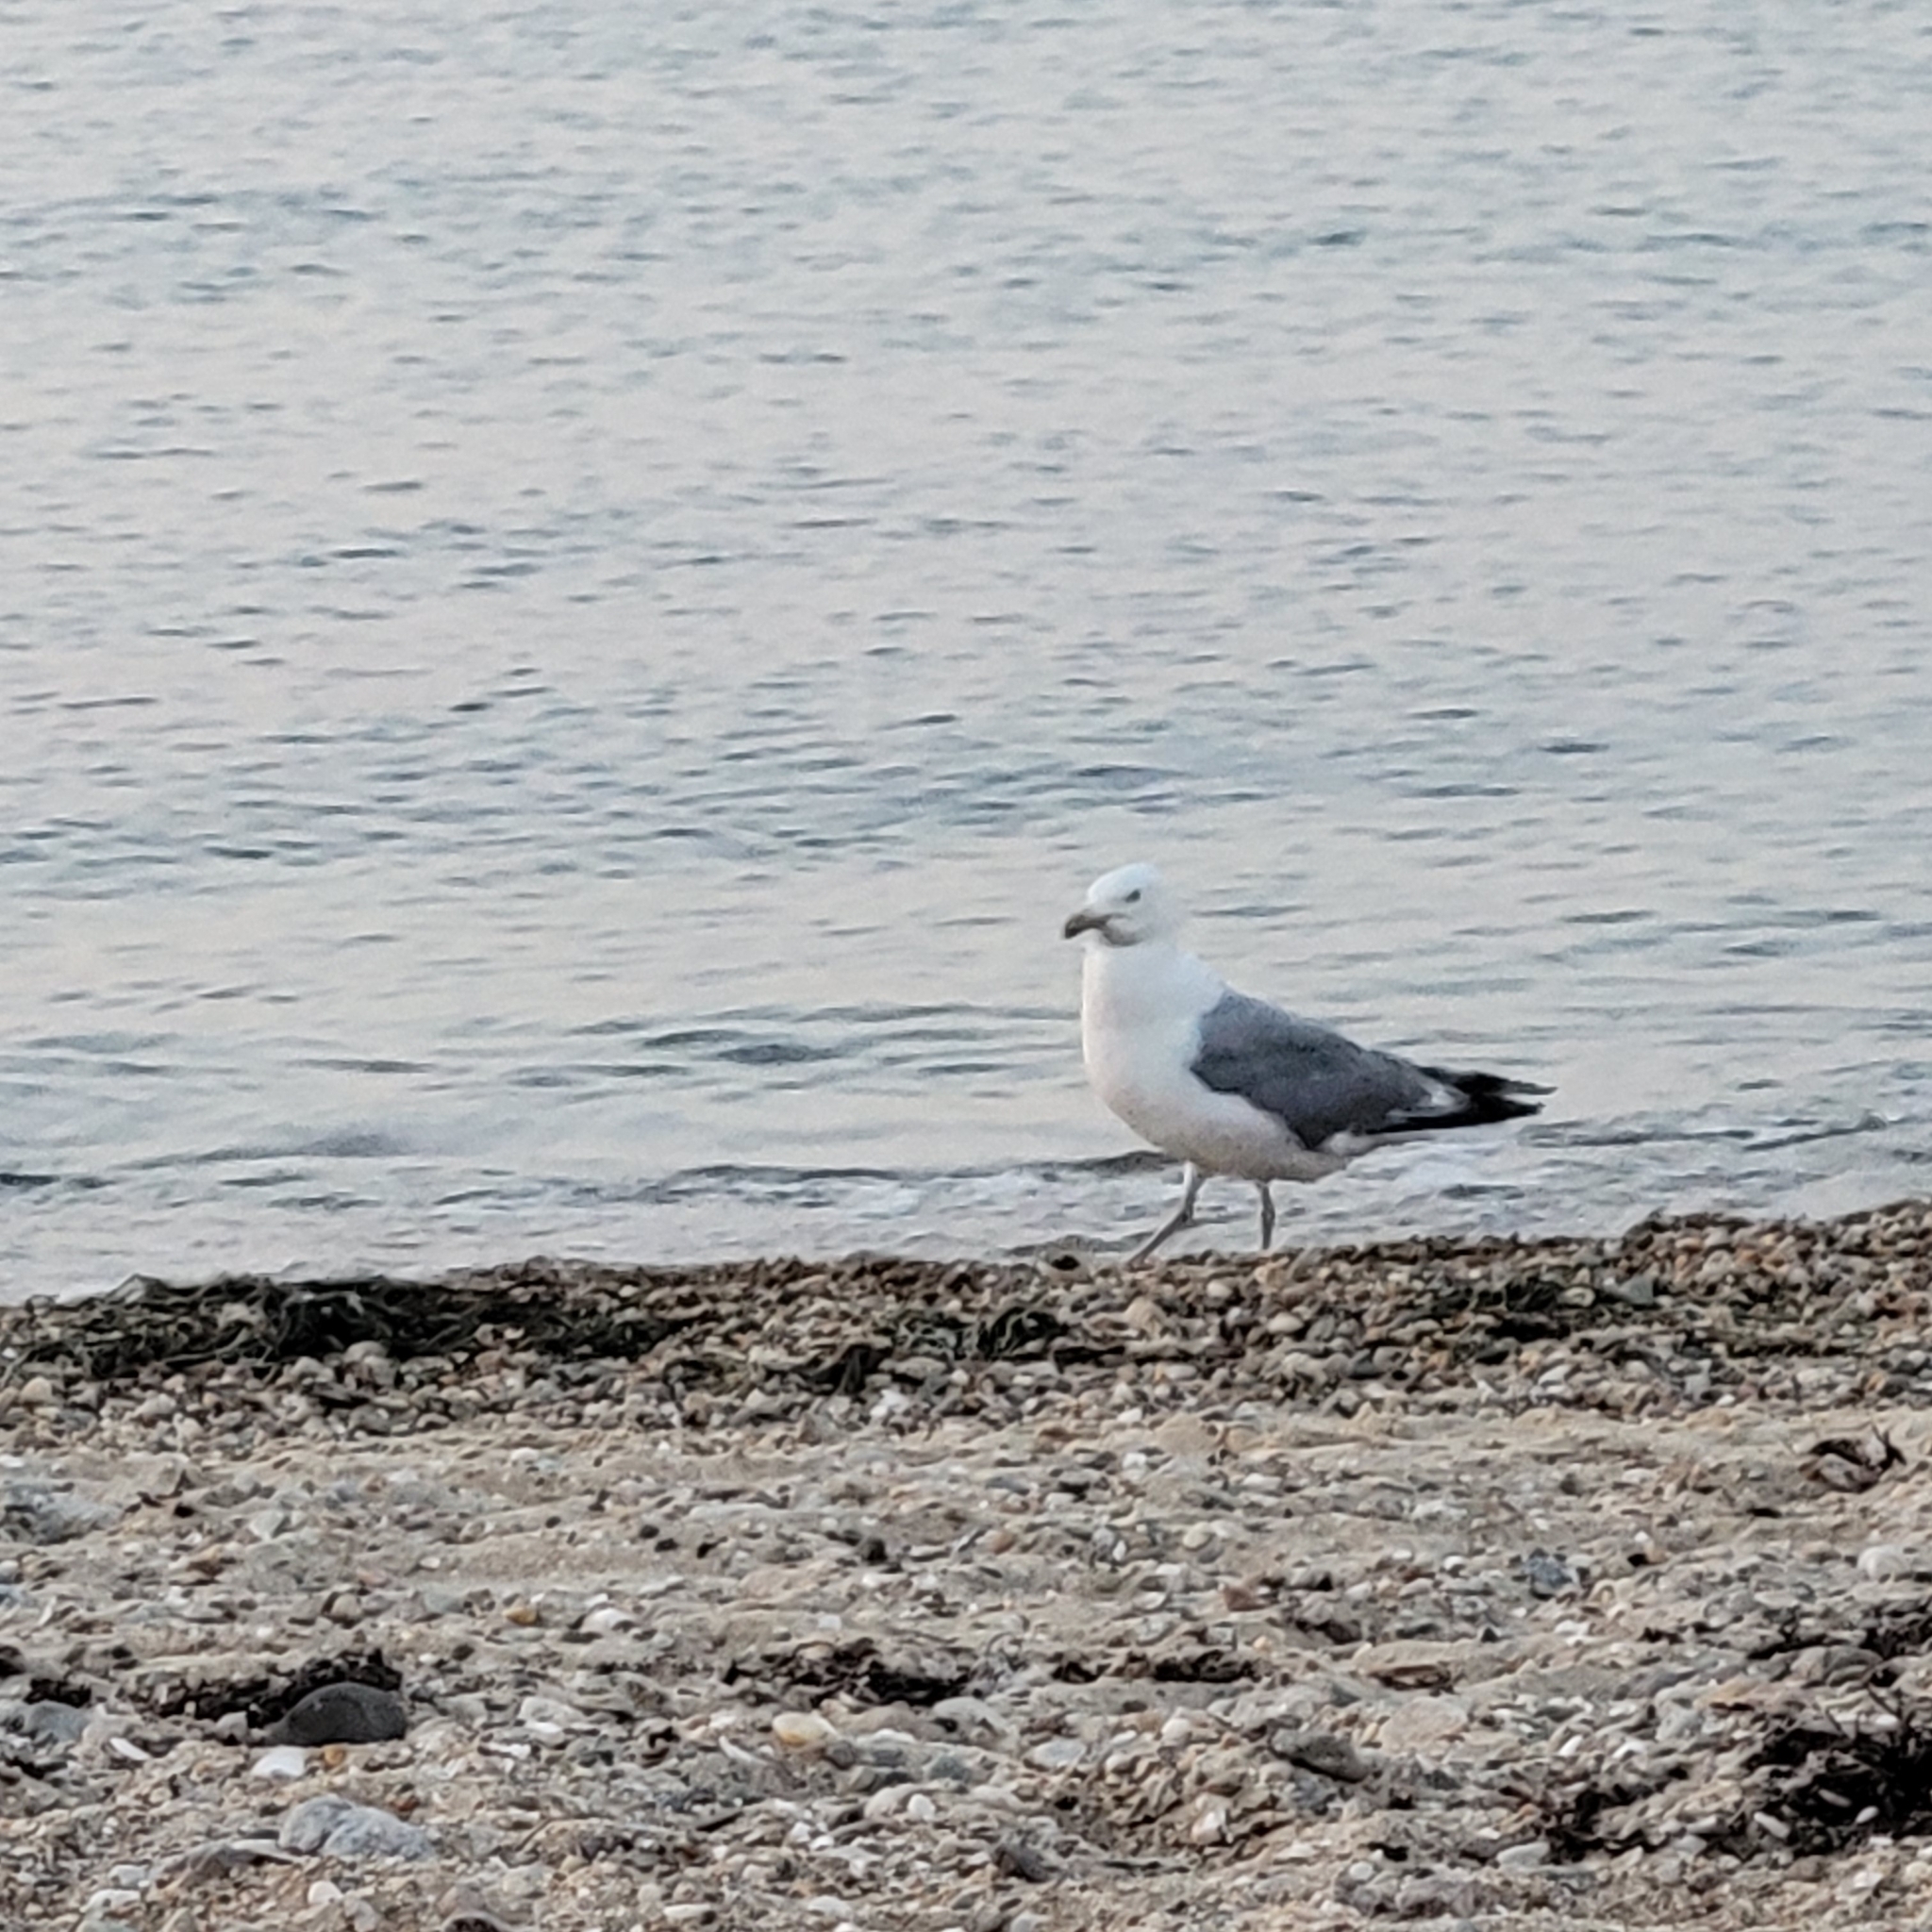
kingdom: Animalia
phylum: Chordata
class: Aves
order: Charadriiformes
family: Laridae
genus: Larus
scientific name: Larus argentatus
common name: Herring gull
